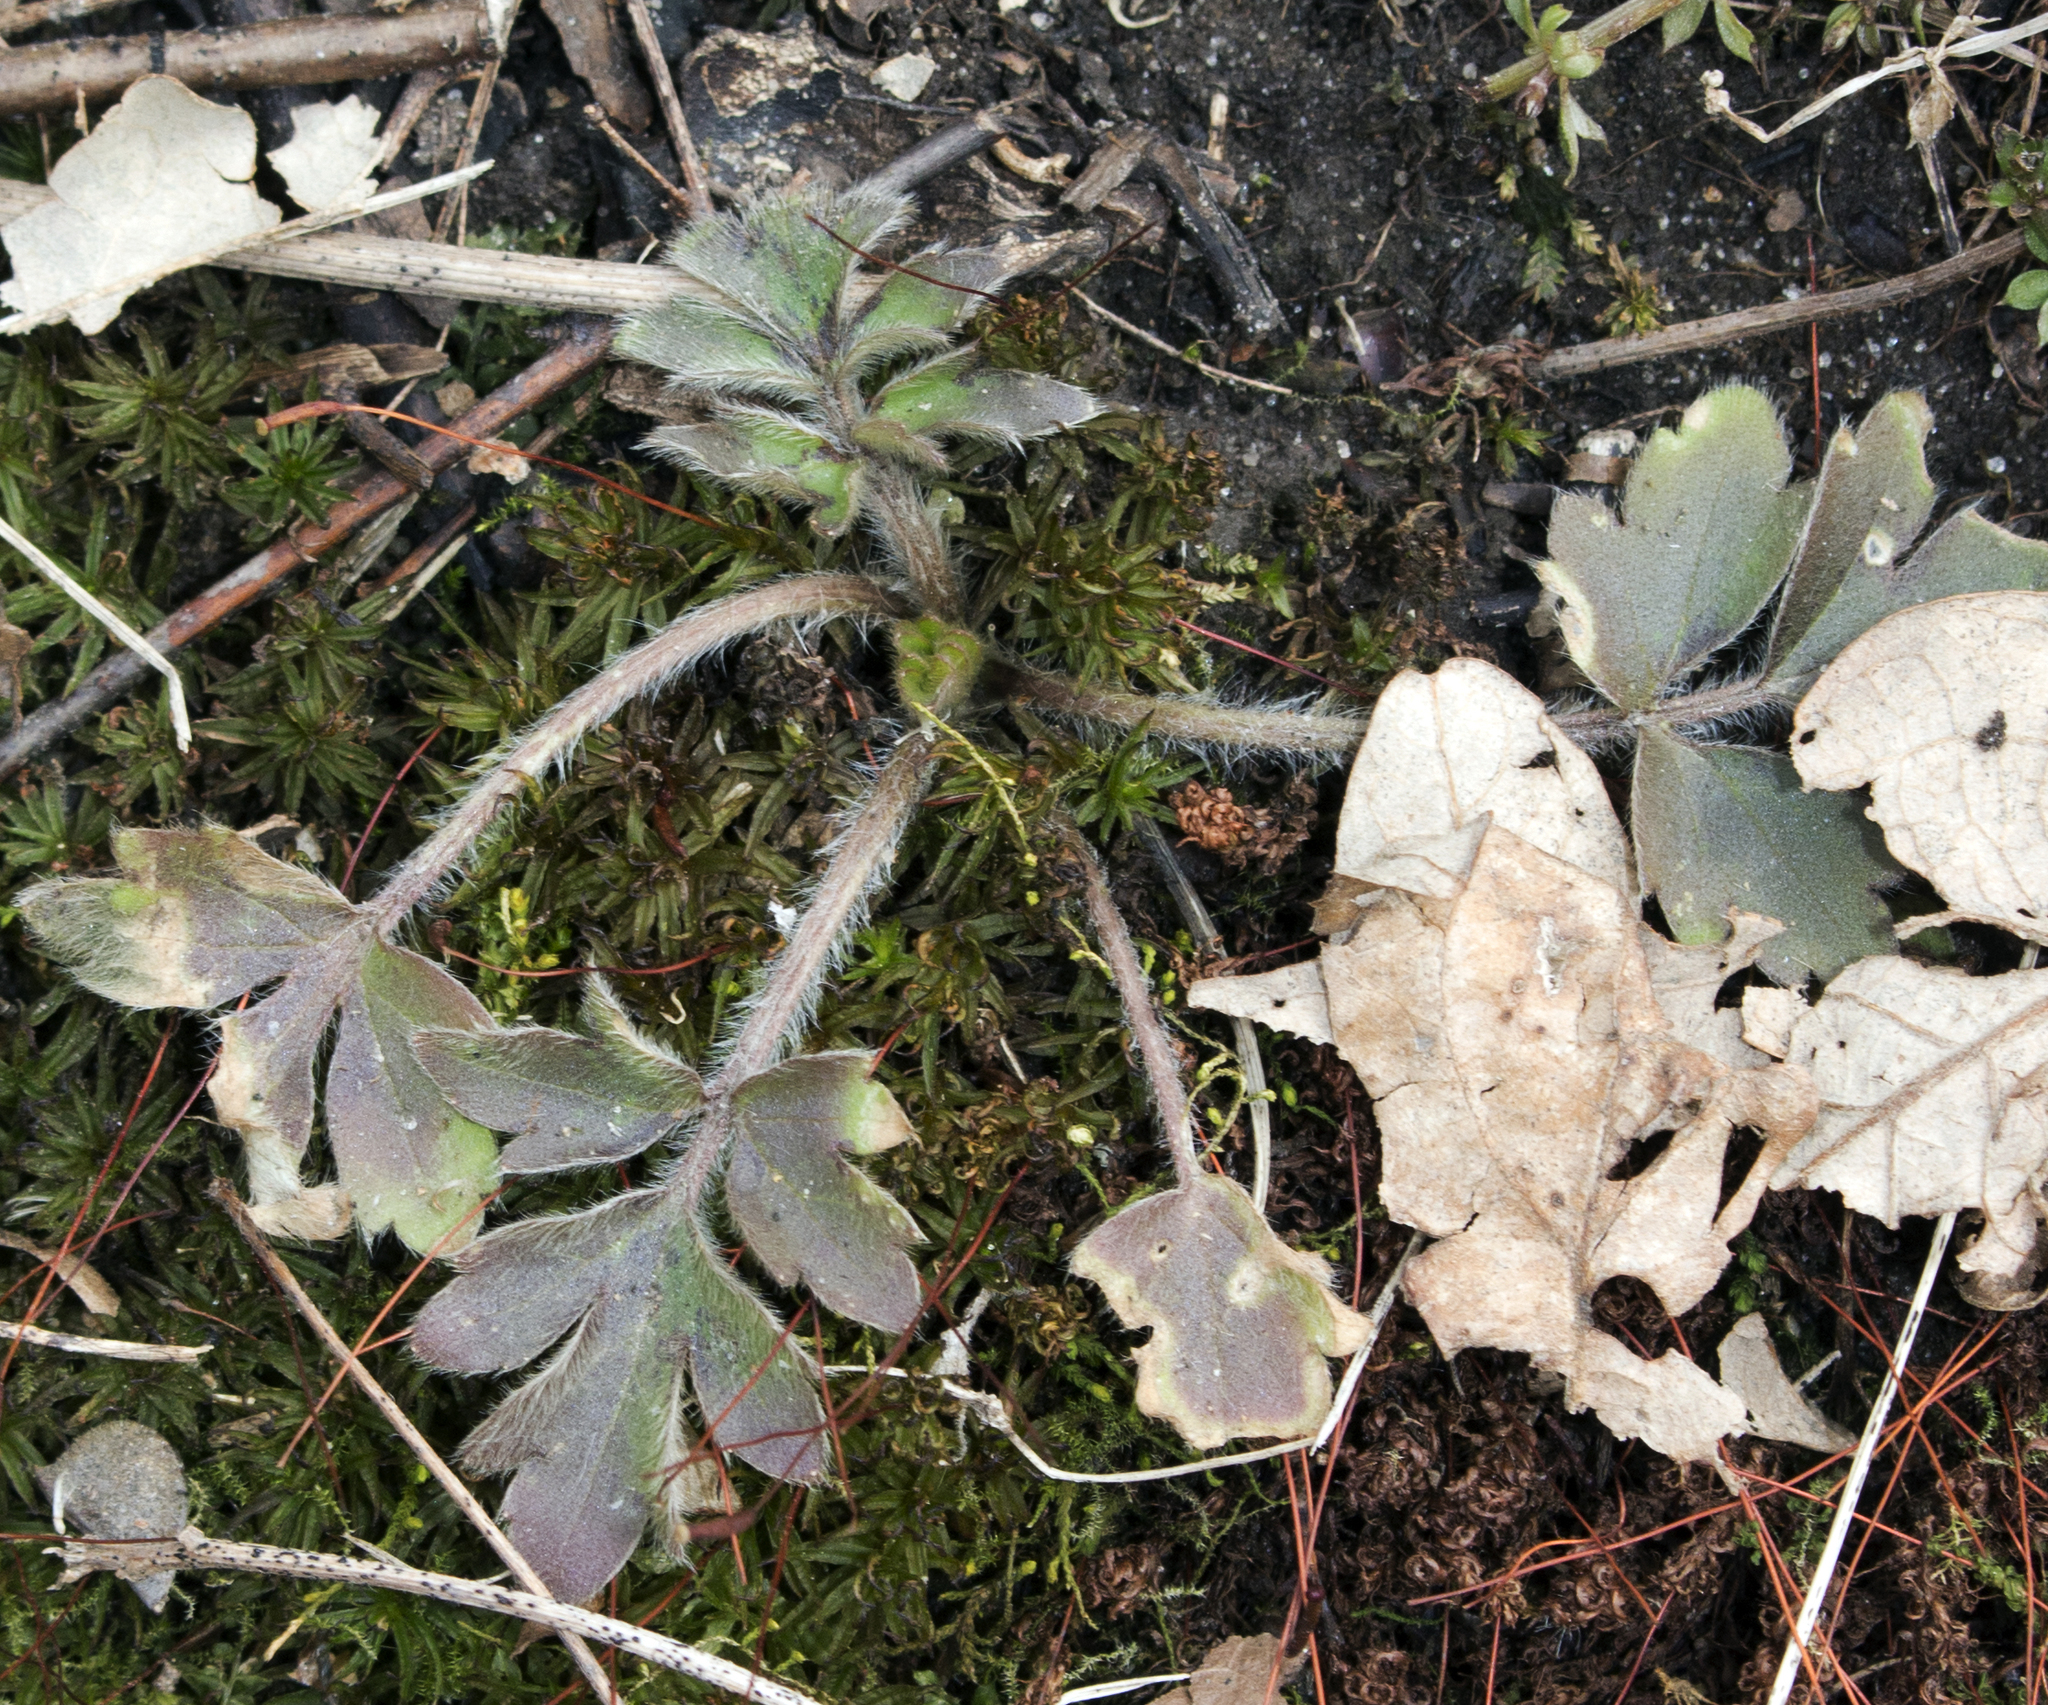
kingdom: Plantae
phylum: Tracheophyta
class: Magnoliopsida
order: Ranunculales
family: Ranunculaceae
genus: Ranunculus
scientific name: Ranunculus fascicularis
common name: Early buttercup
